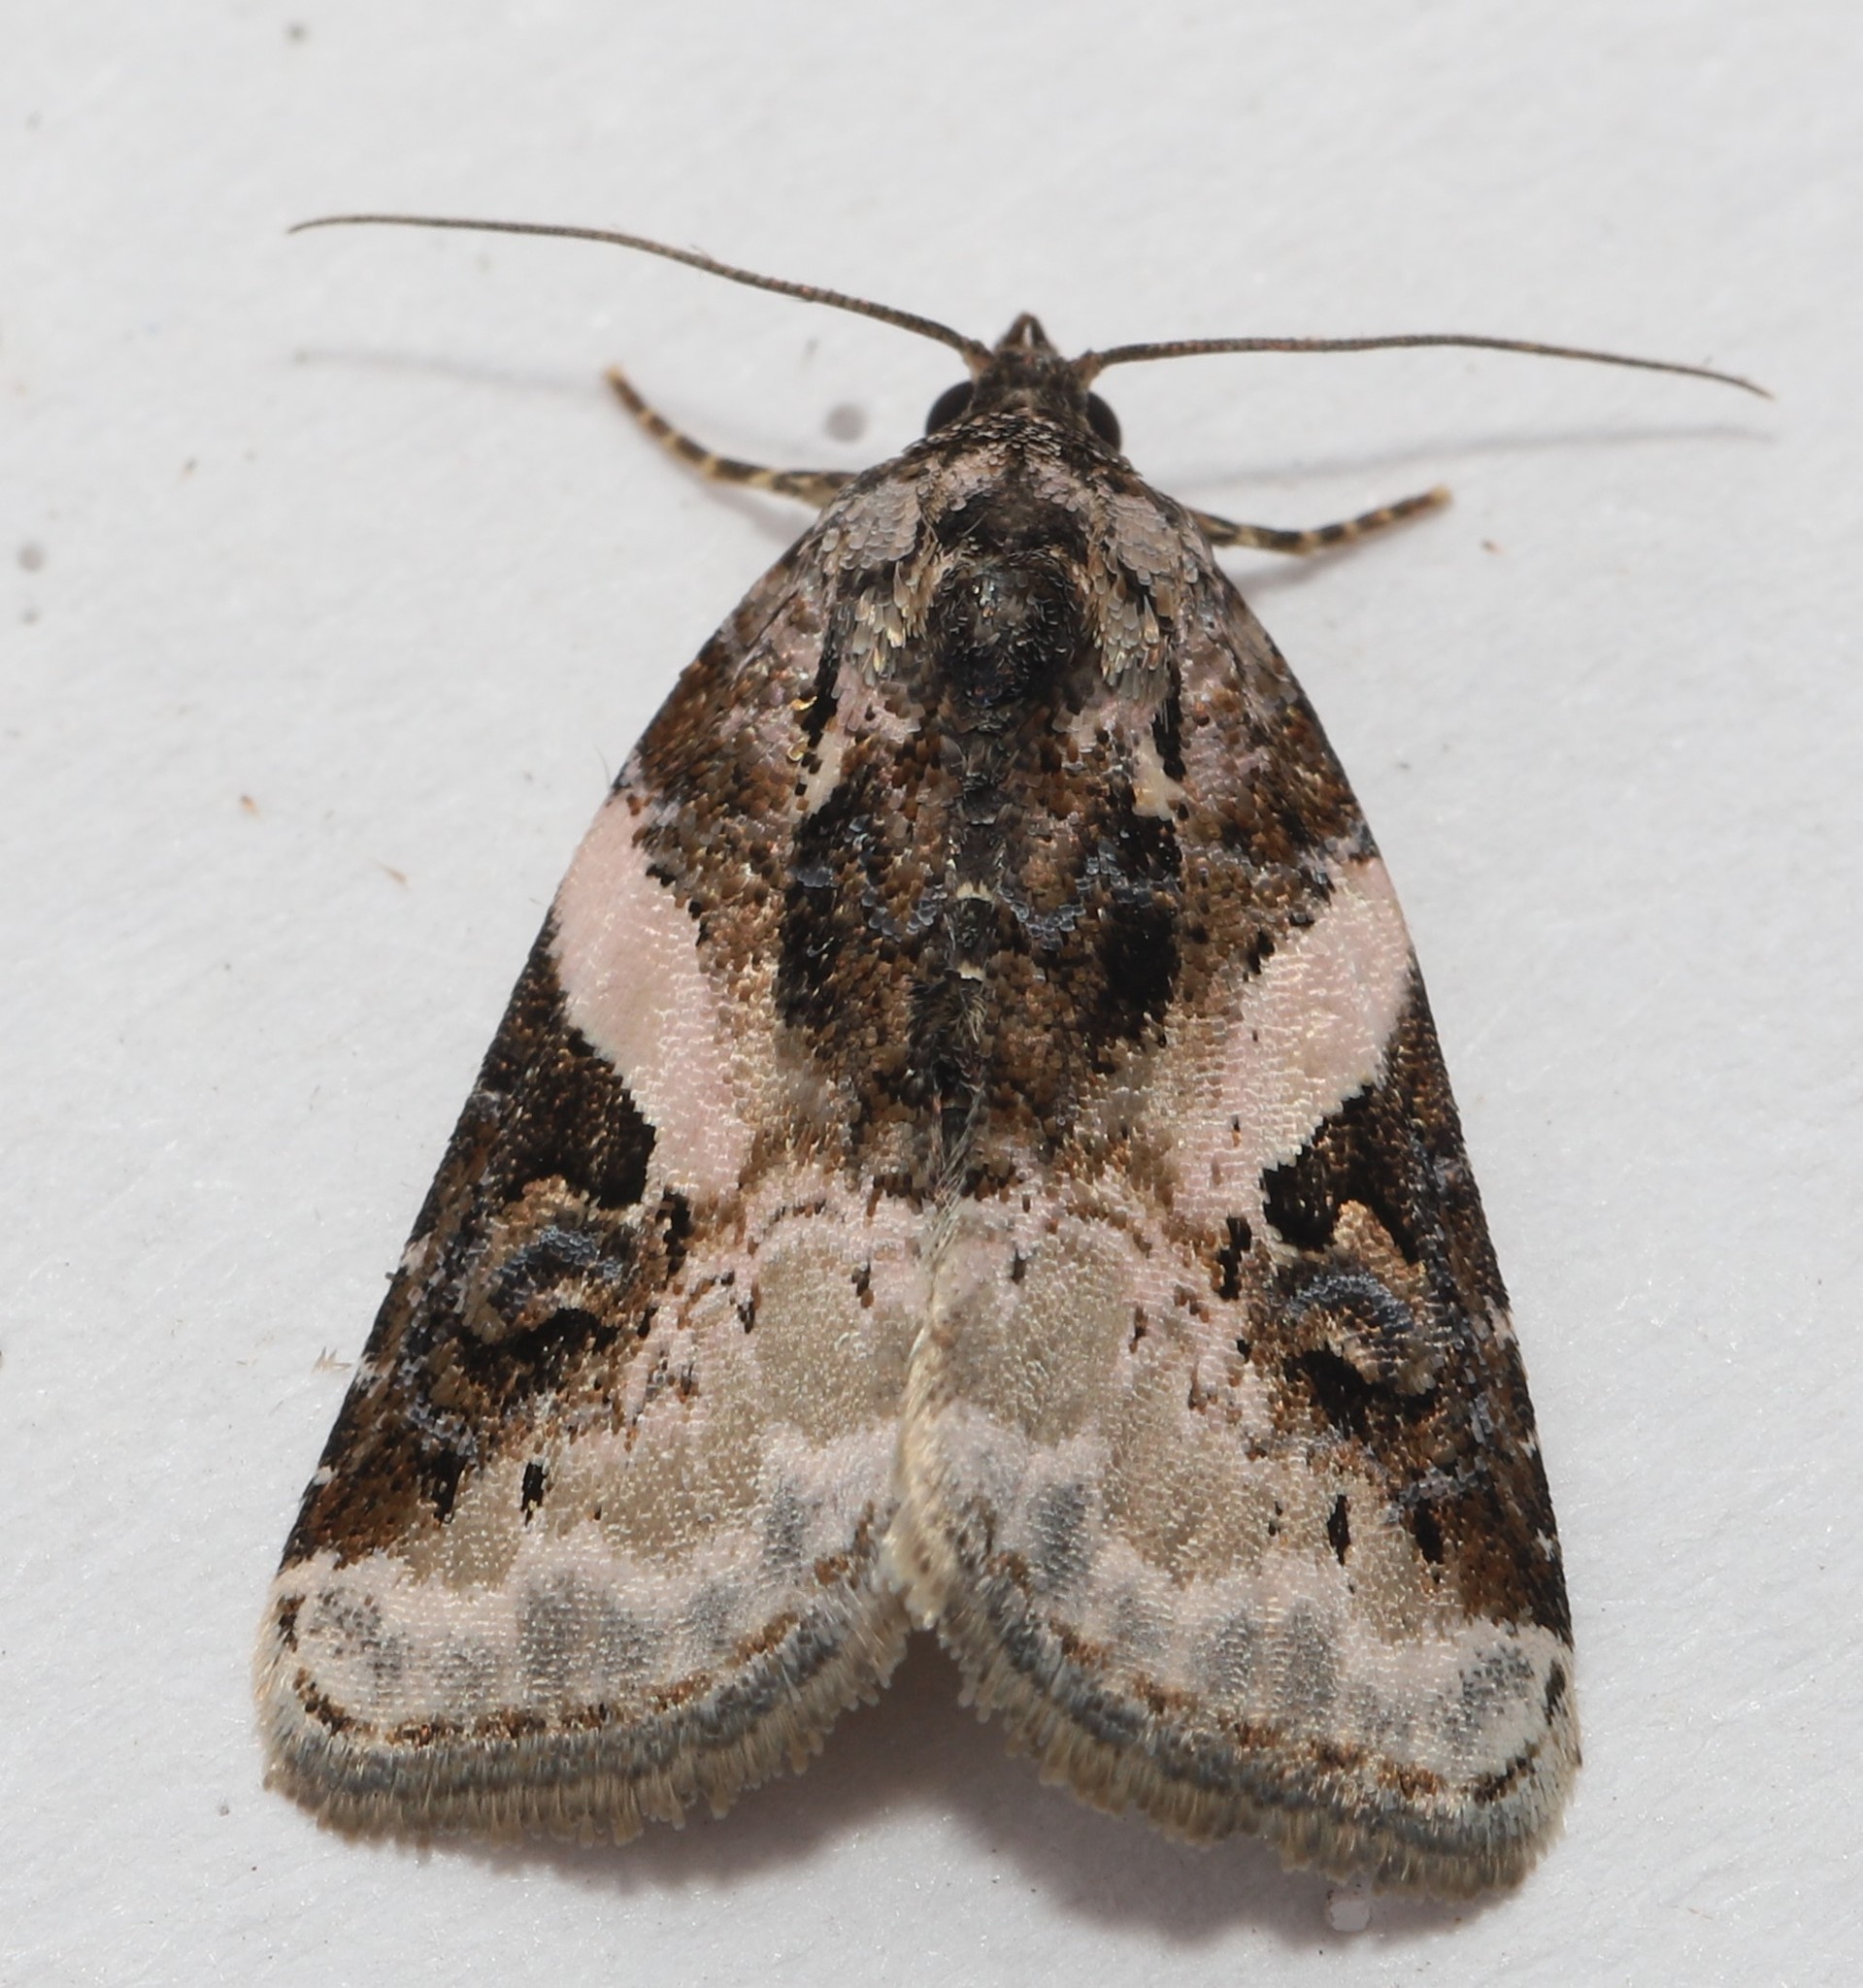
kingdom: Animalia
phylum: Arthropoda
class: Insecta
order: Lepidoptera
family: Noctuidae
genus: Pseudeustrotia
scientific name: Pseudeustrotia carneola
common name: Pink-barred lithacodia moth
